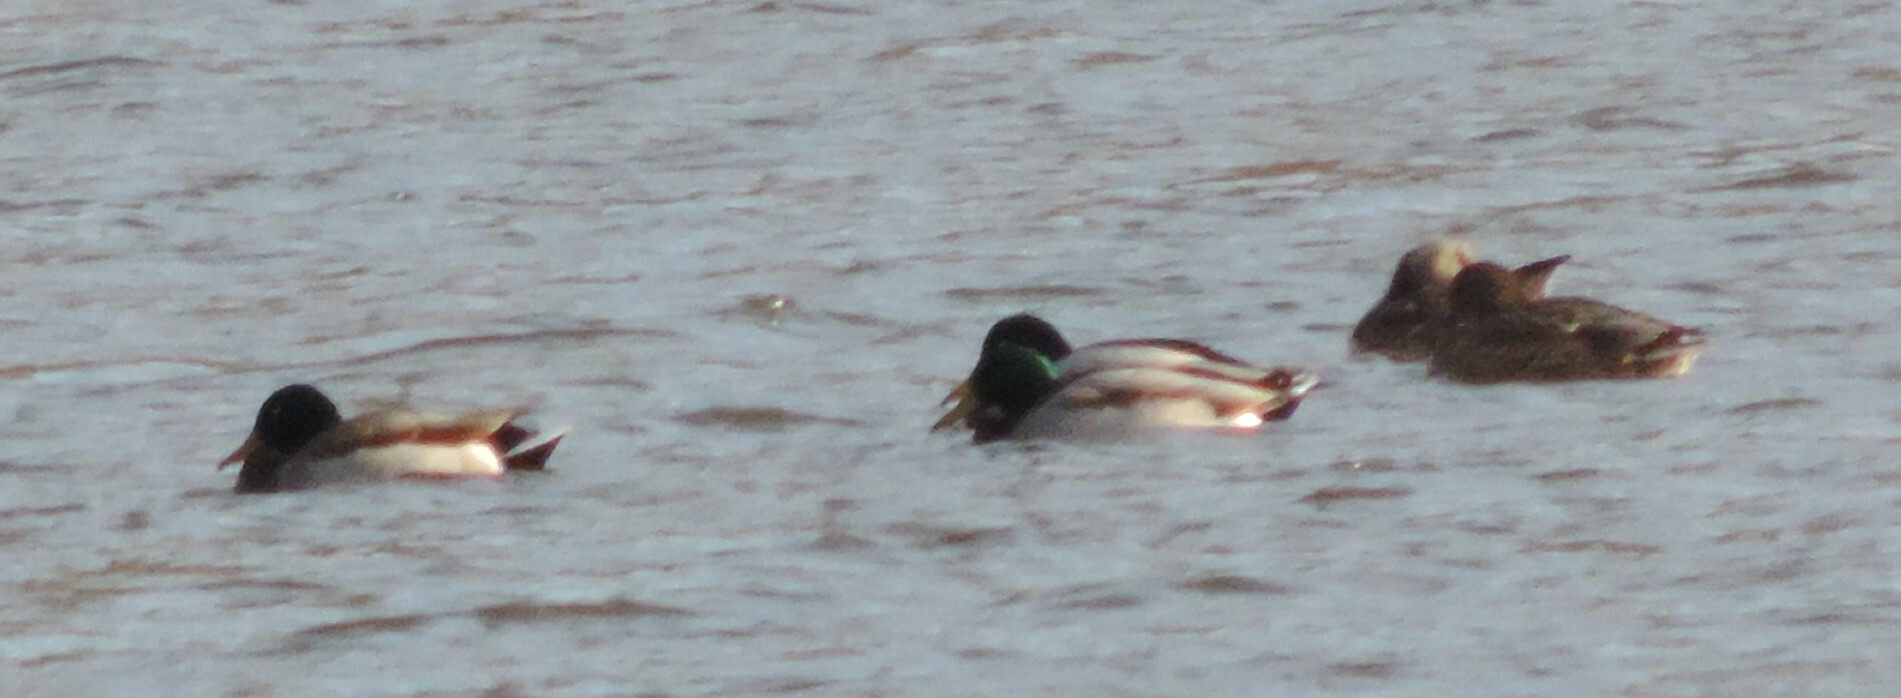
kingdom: Animalia
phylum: Chordata
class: Aves
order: Anseriformes
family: Anatidae
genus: Anas
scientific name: Anas platyrhynchos
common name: Mallard
